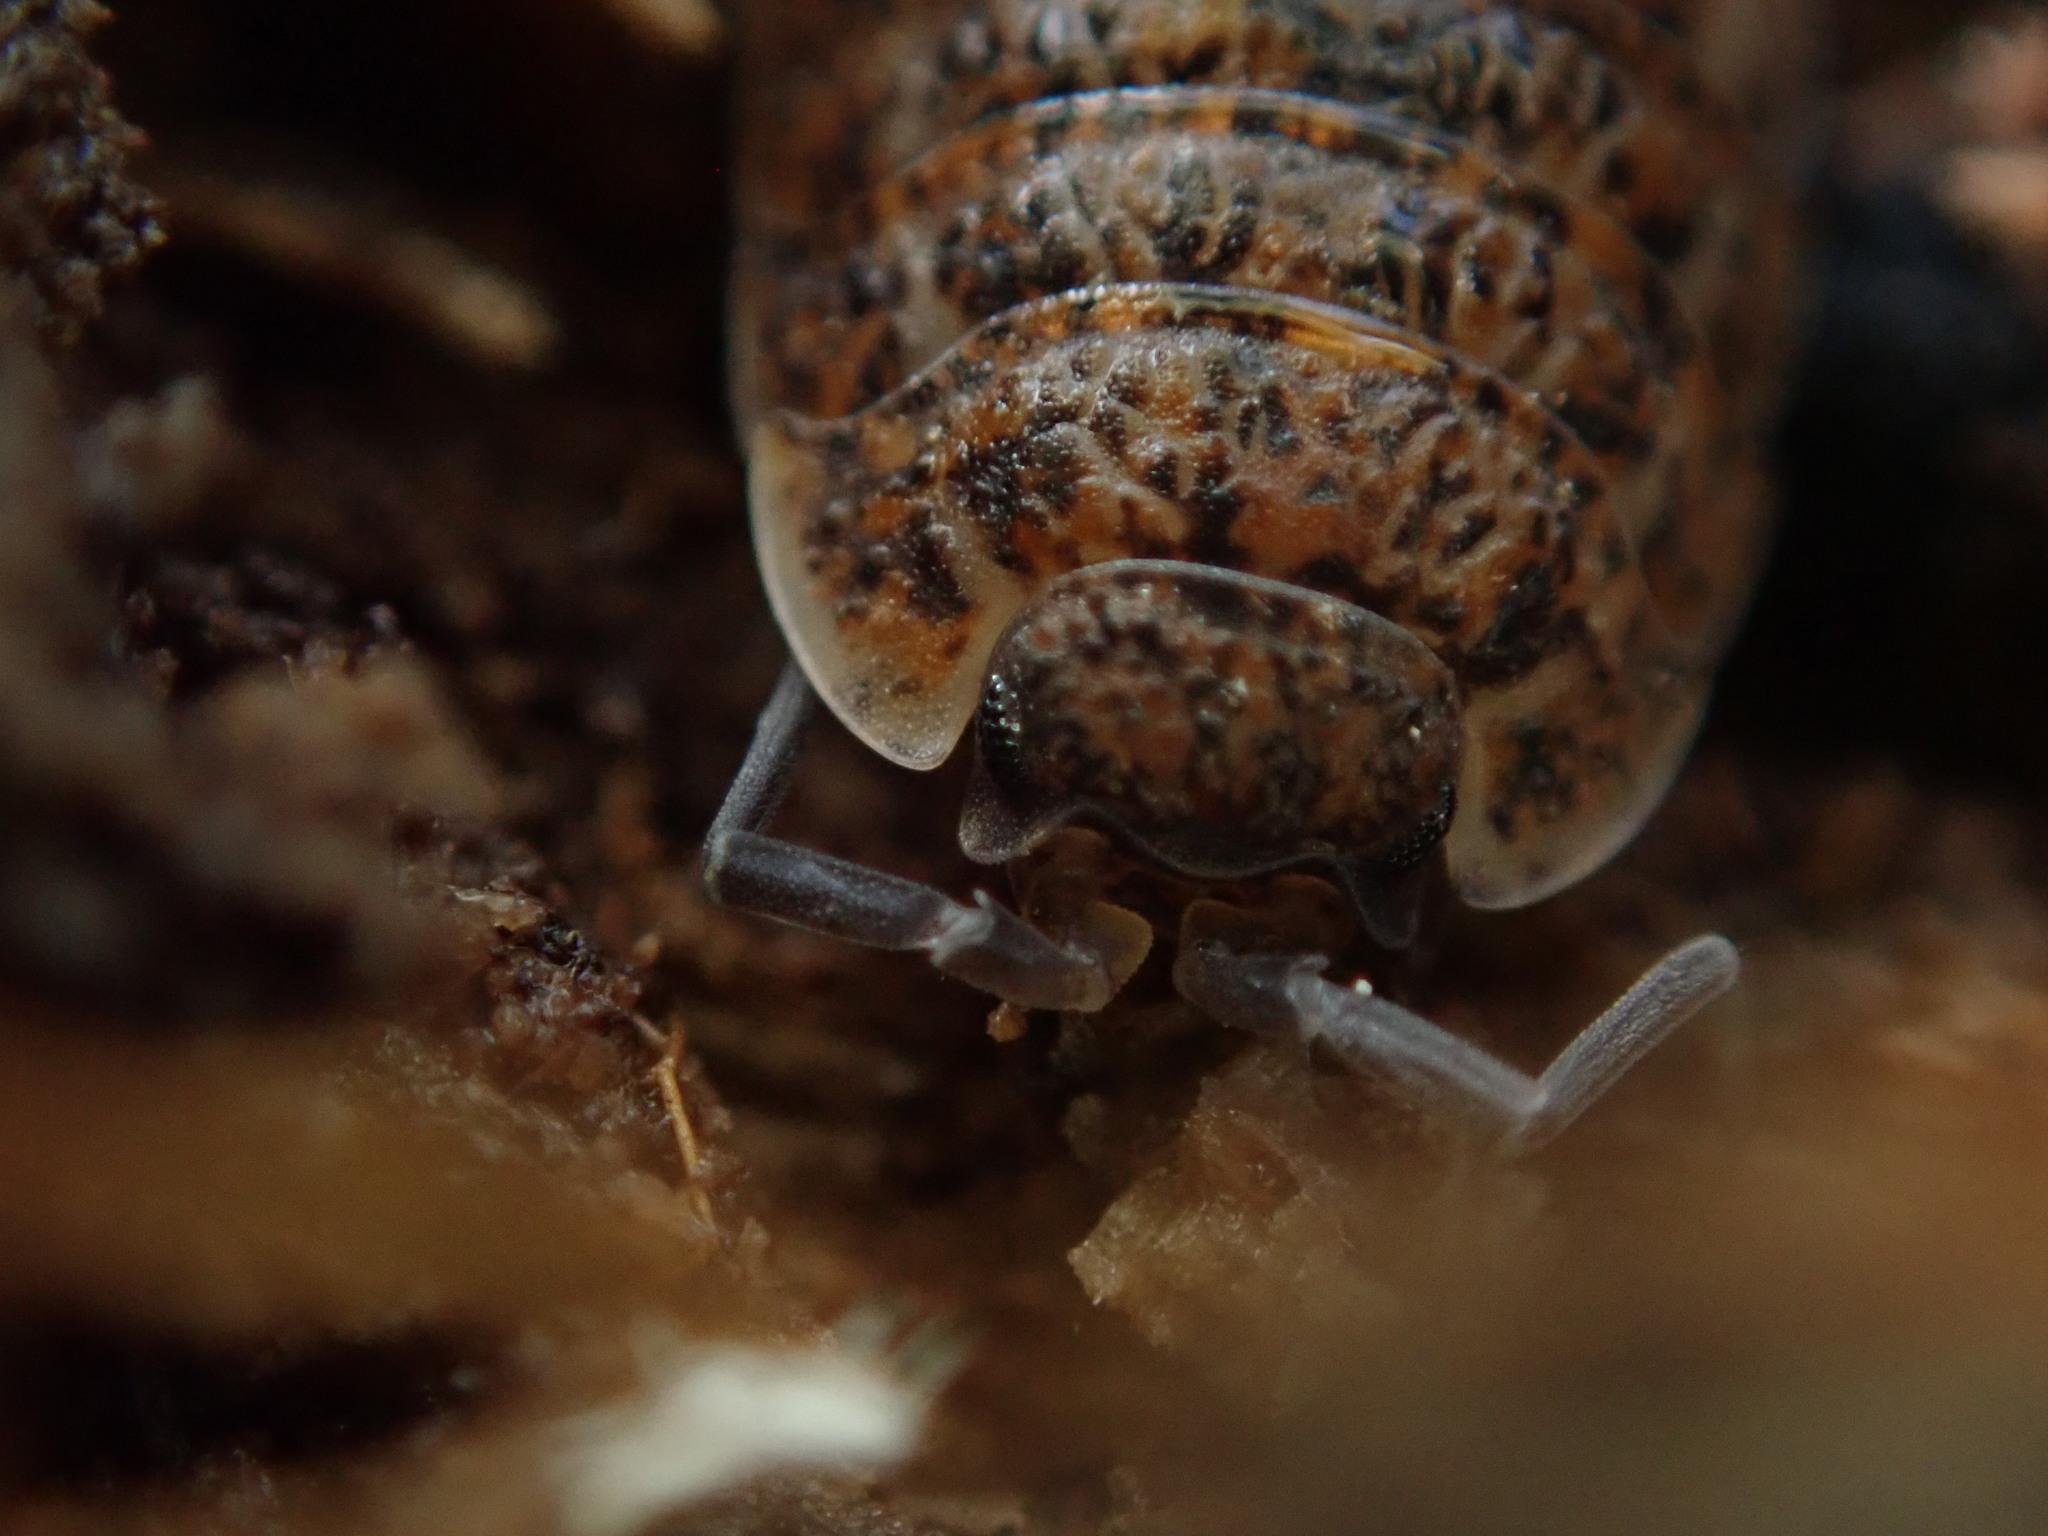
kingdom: Animalia
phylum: Arthropoda
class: Malacostraca
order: Isopoda
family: Trachelipodidae
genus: Trachelipus
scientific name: Trachelipus rathkii
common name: Isopod
